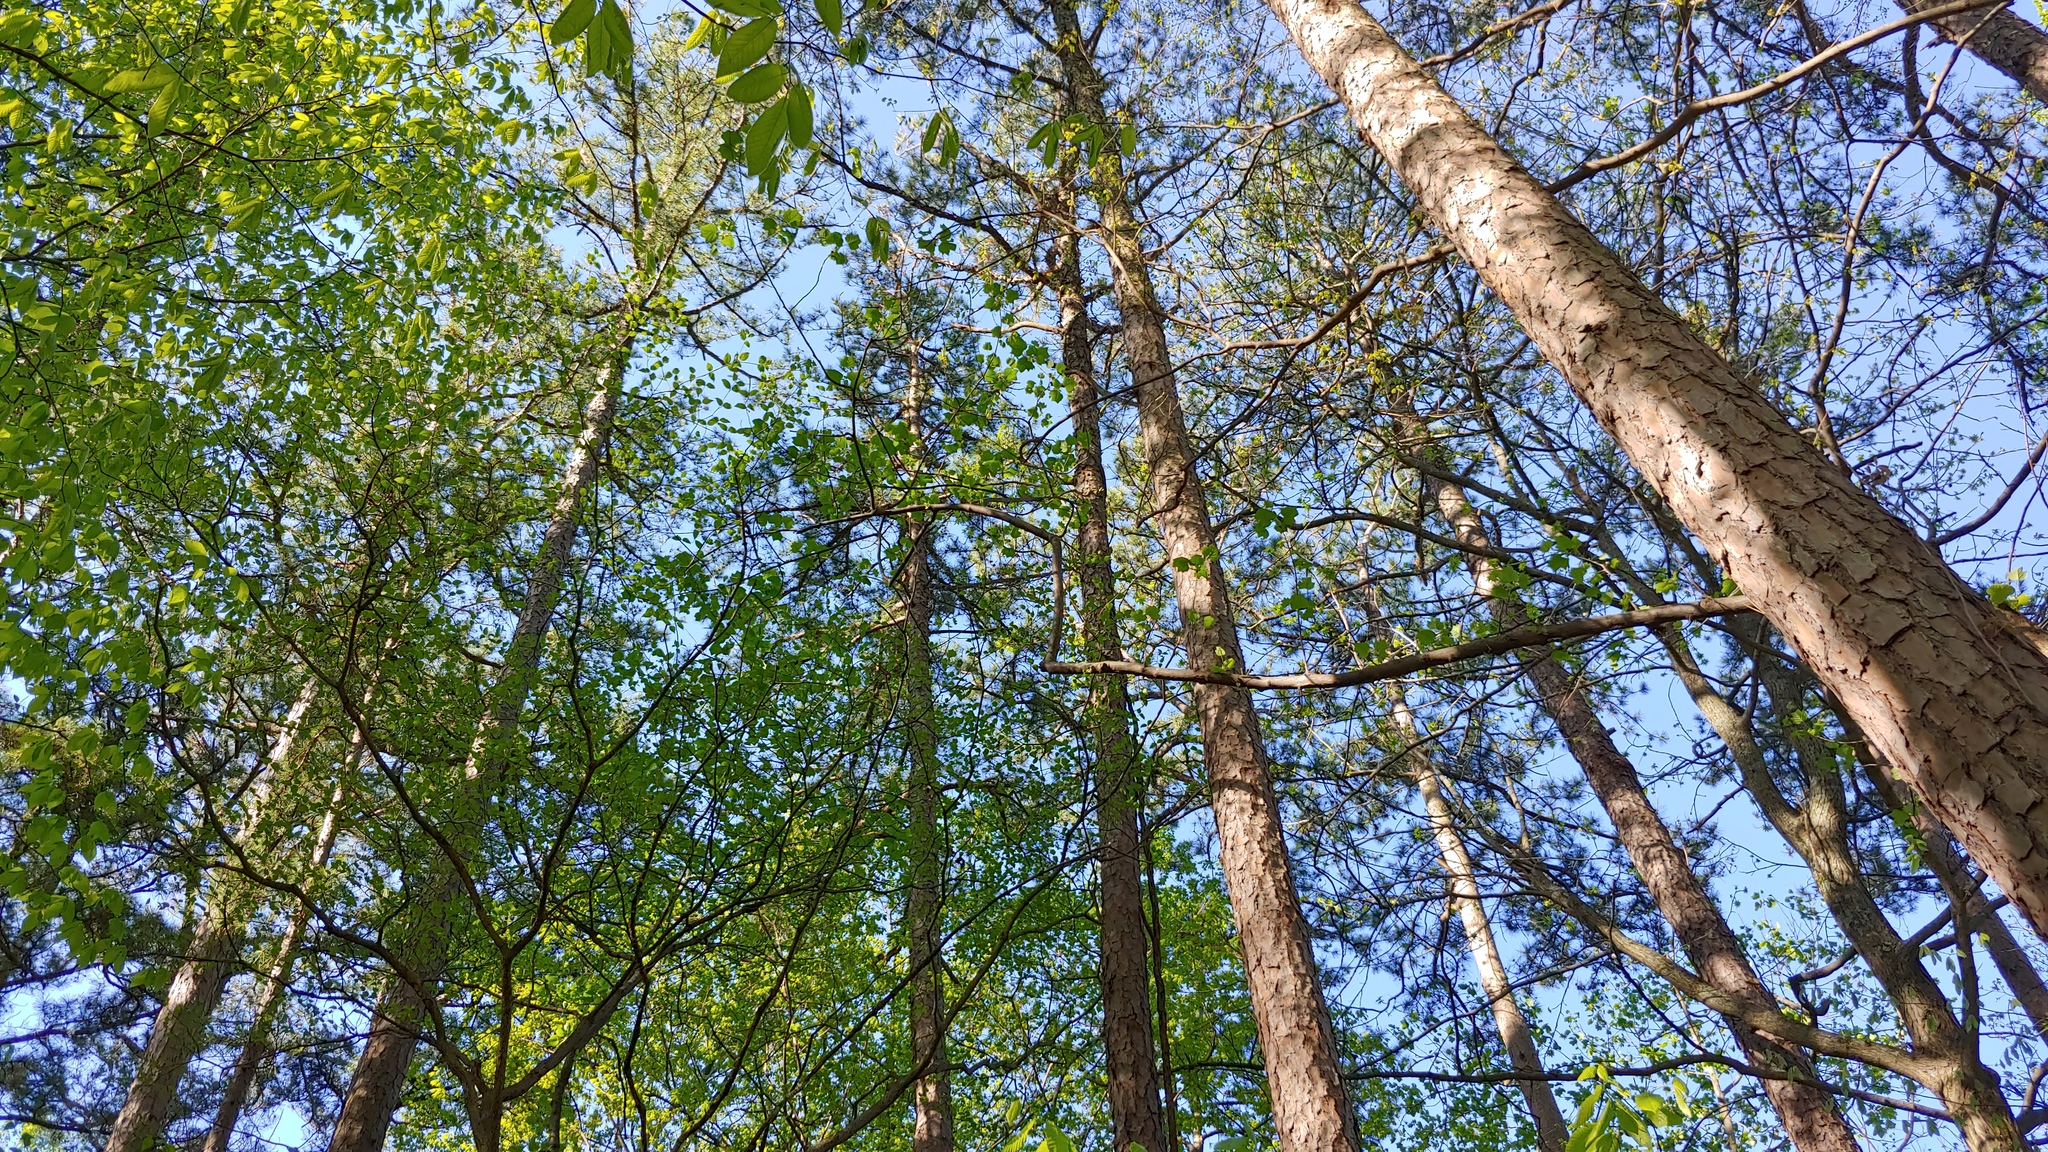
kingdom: Plantae
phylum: Tracheophyta
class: Pinopsida
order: Pinales
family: Pinaceae
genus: Pinus
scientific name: Pinus echinata
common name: Shortleaf pine
